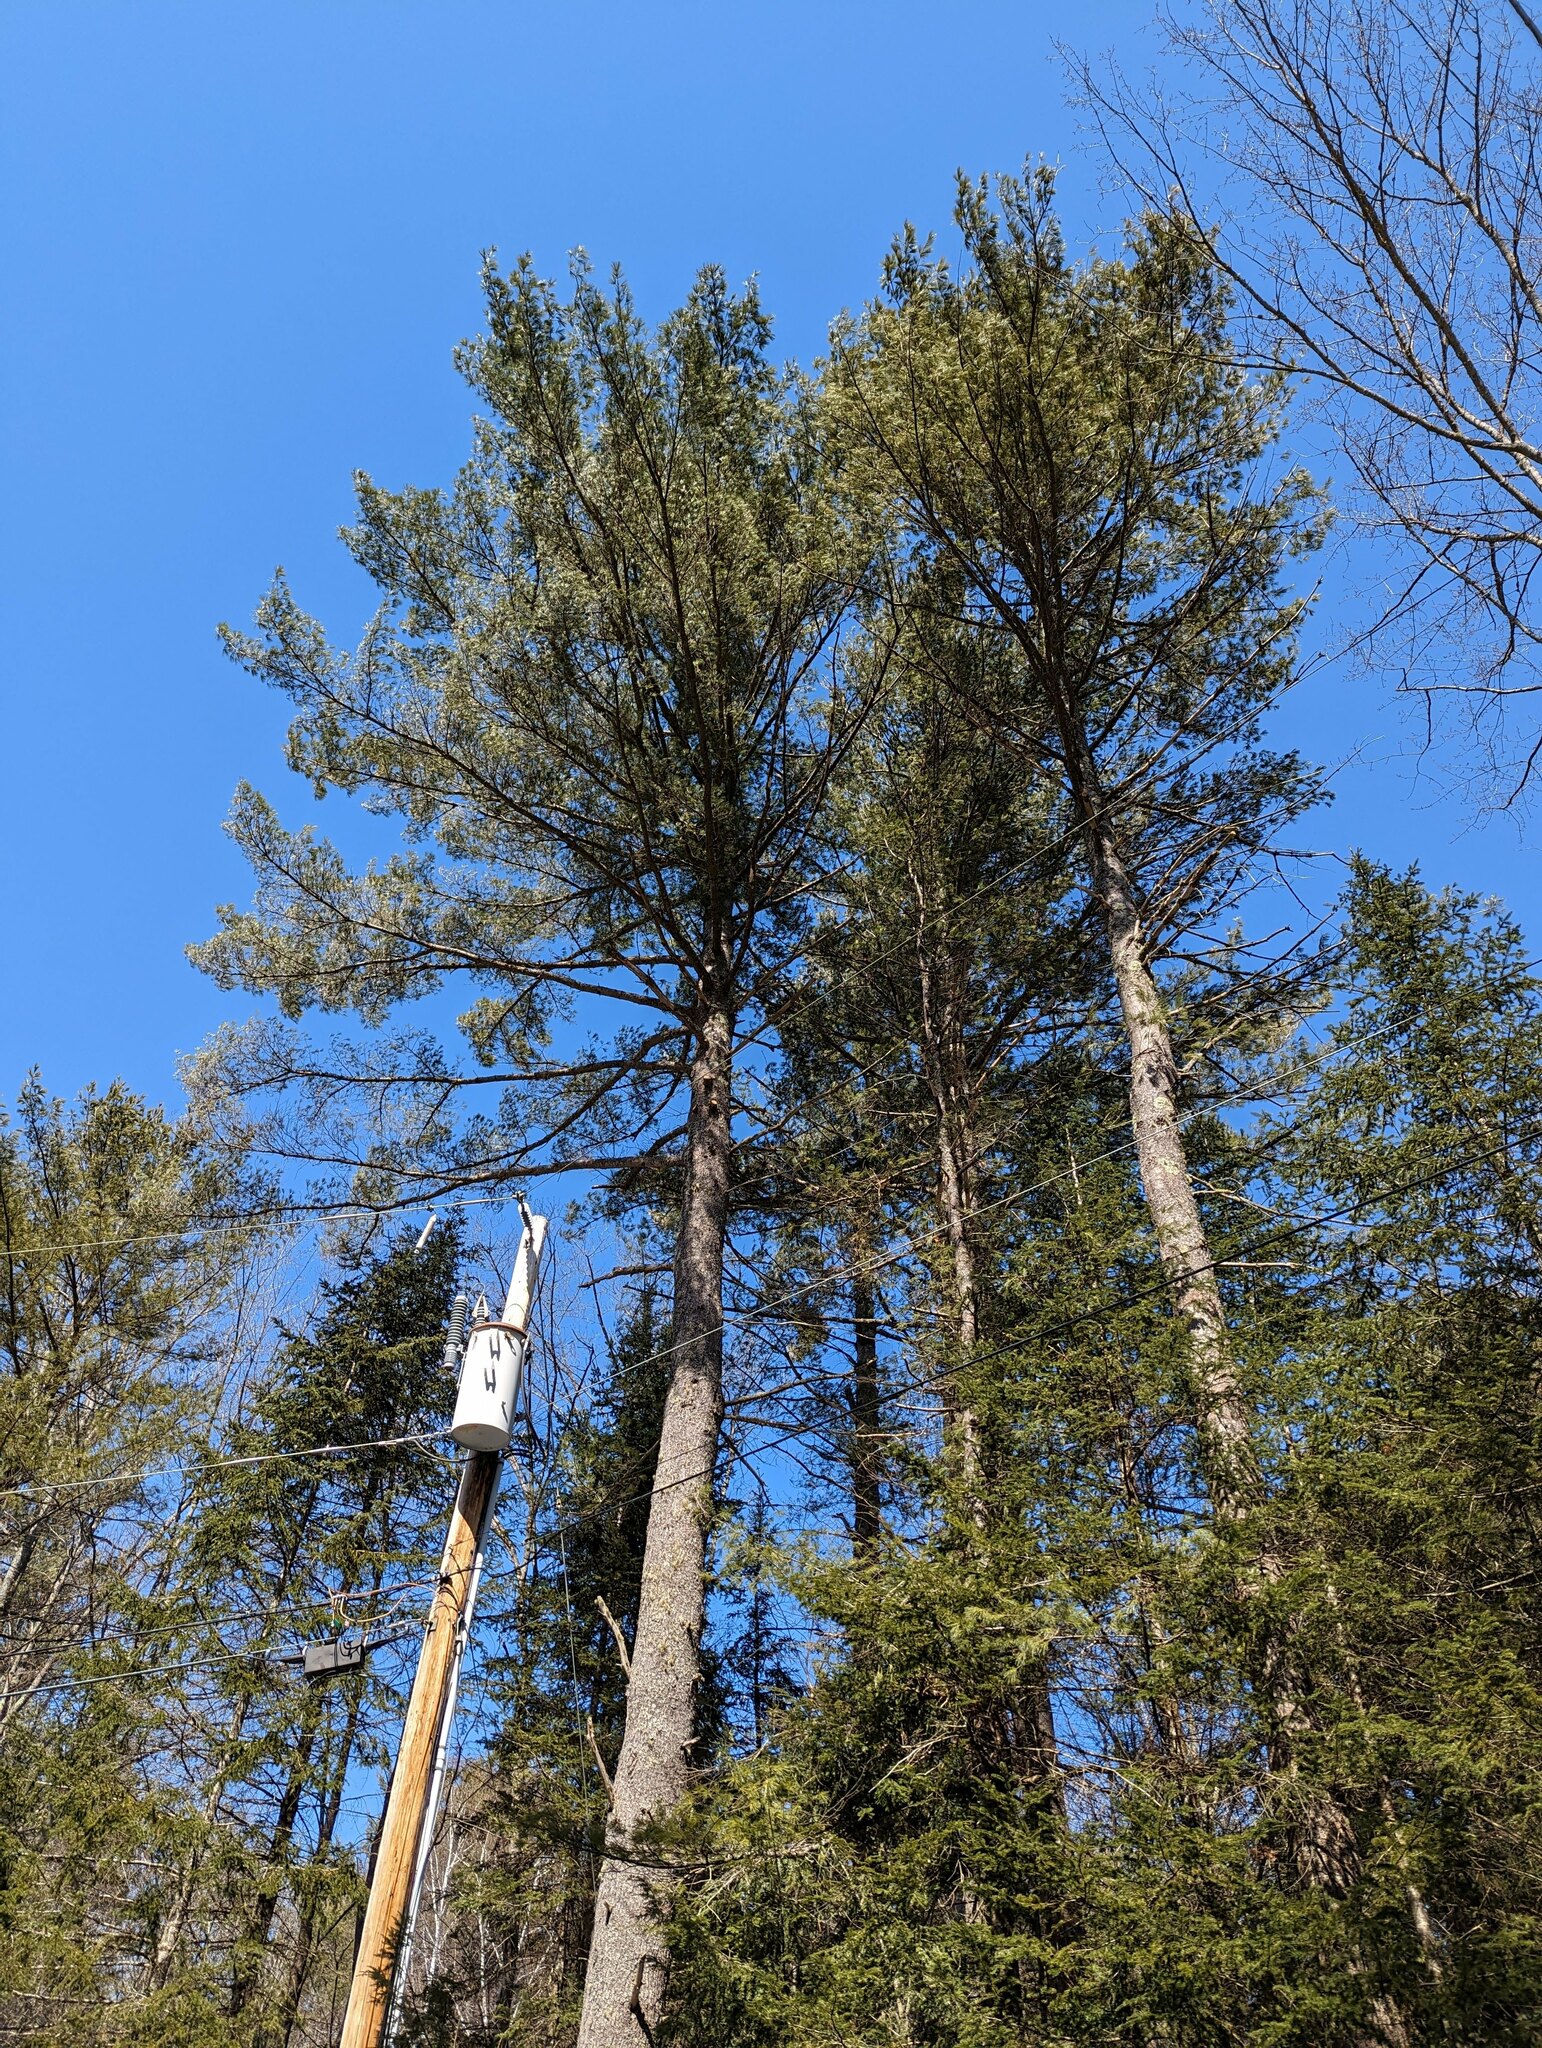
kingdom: Plantae
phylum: Tracheophyta
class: Pinopsida
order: Pinales
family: Pinaceae
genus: Pinus
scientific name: Pinus strobus
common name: Weymouth pine
